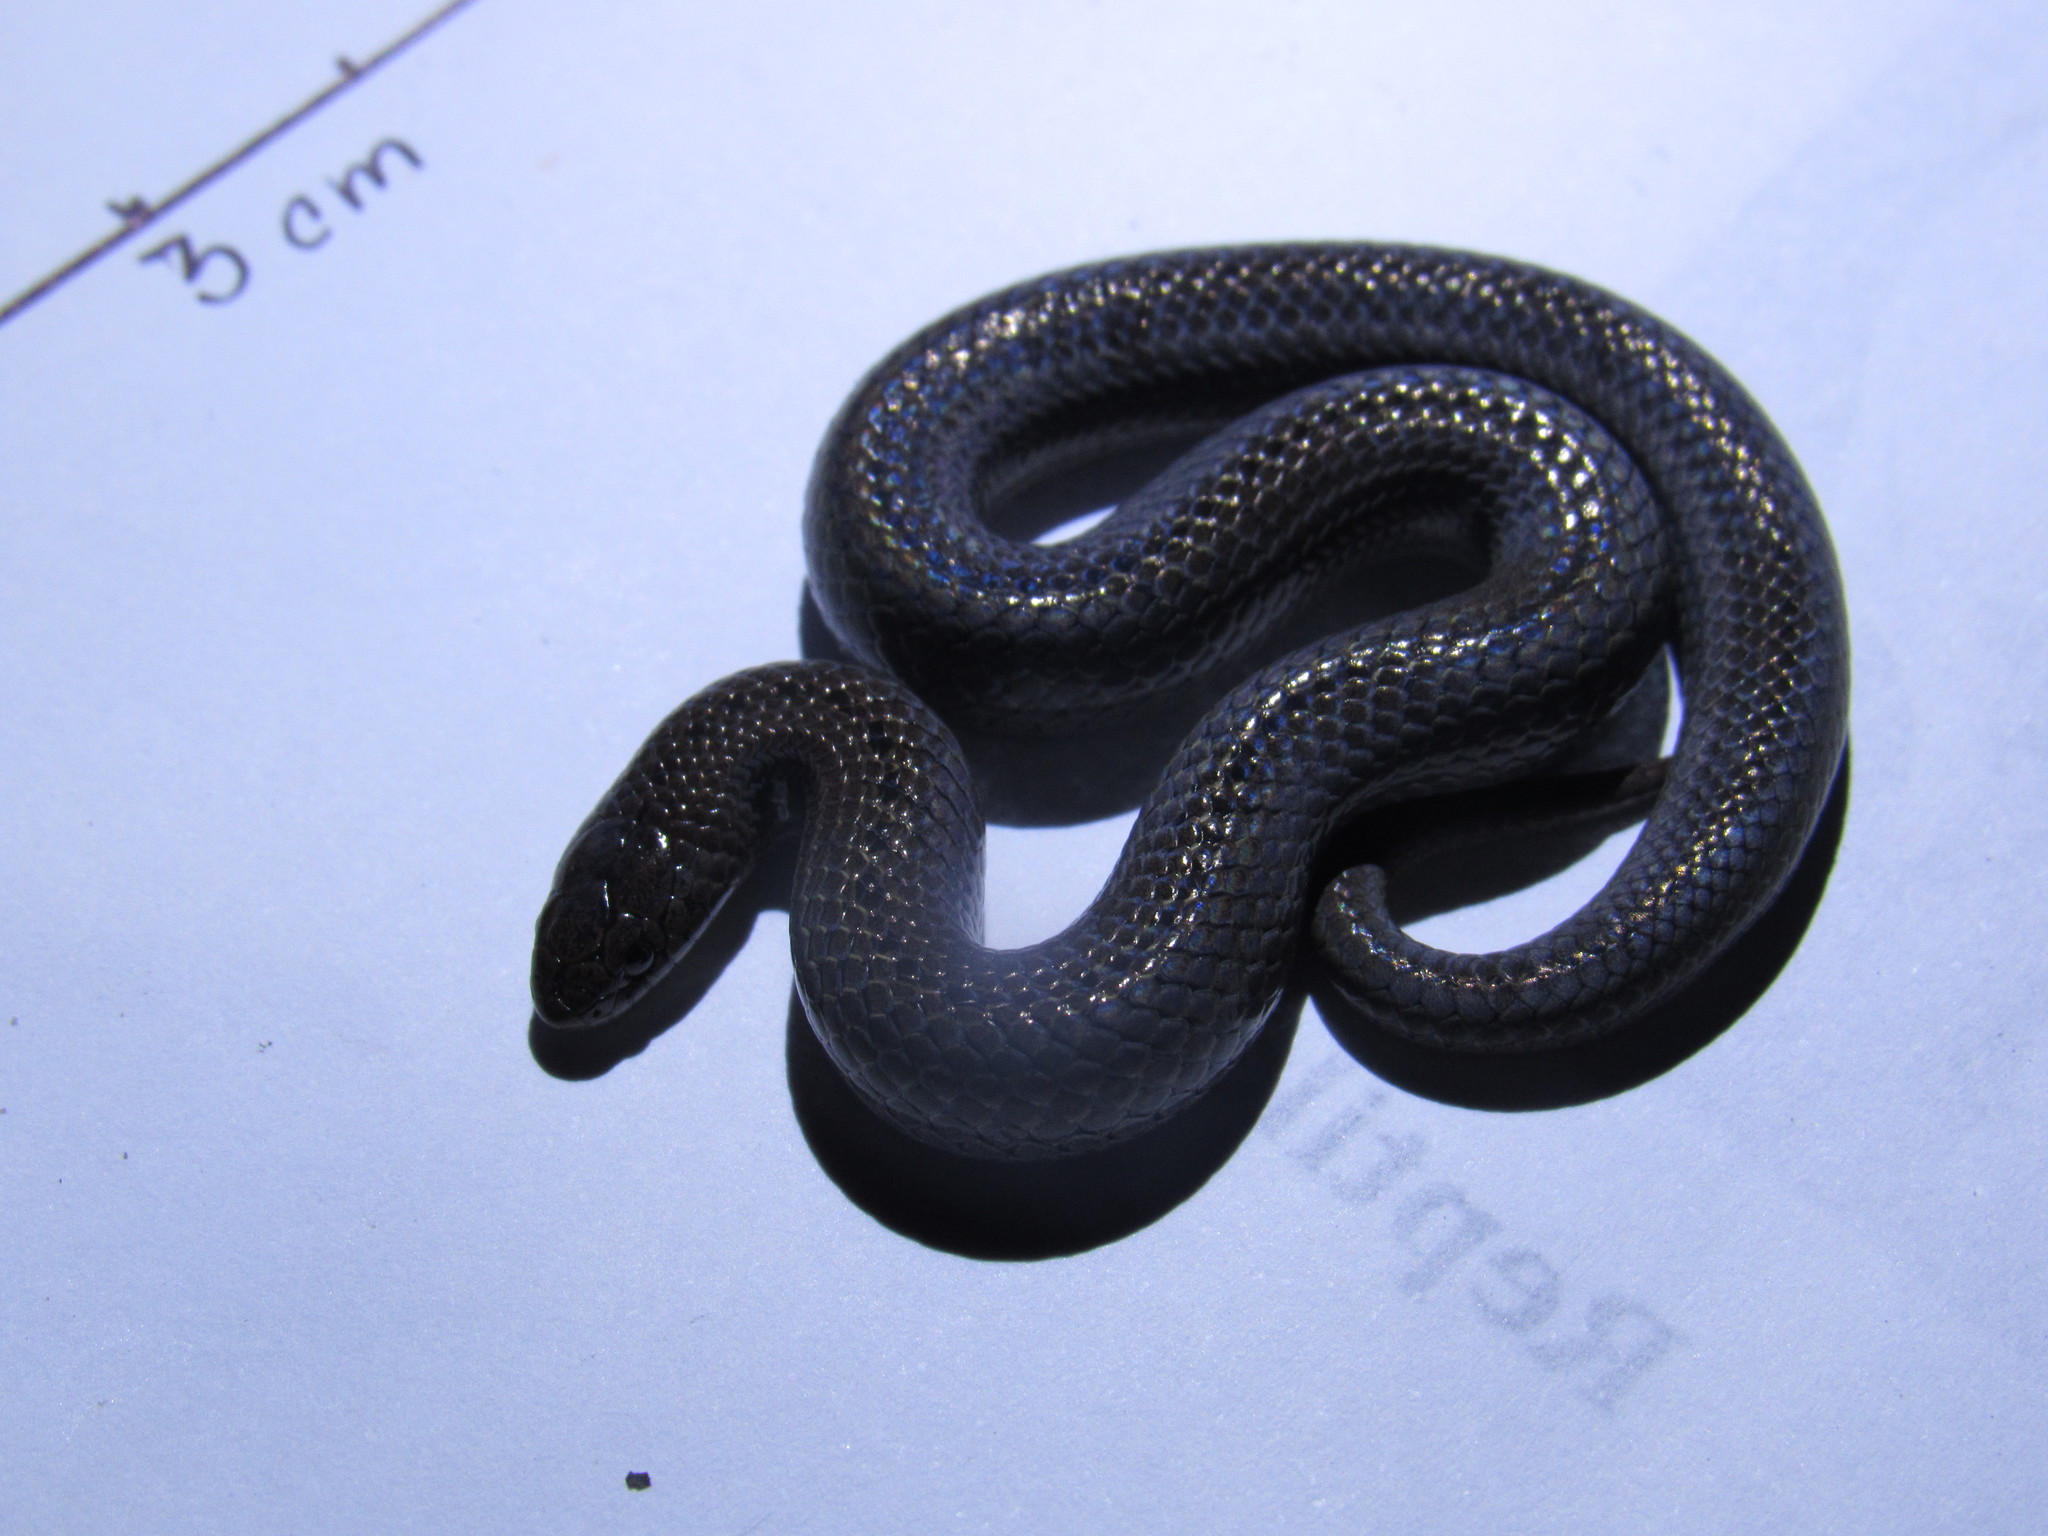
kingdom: Animalia
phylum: Chordata
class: Squamata
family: Colubridae
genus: Conopsis
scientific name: Conopsis nasus
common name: Largenose earth snake
